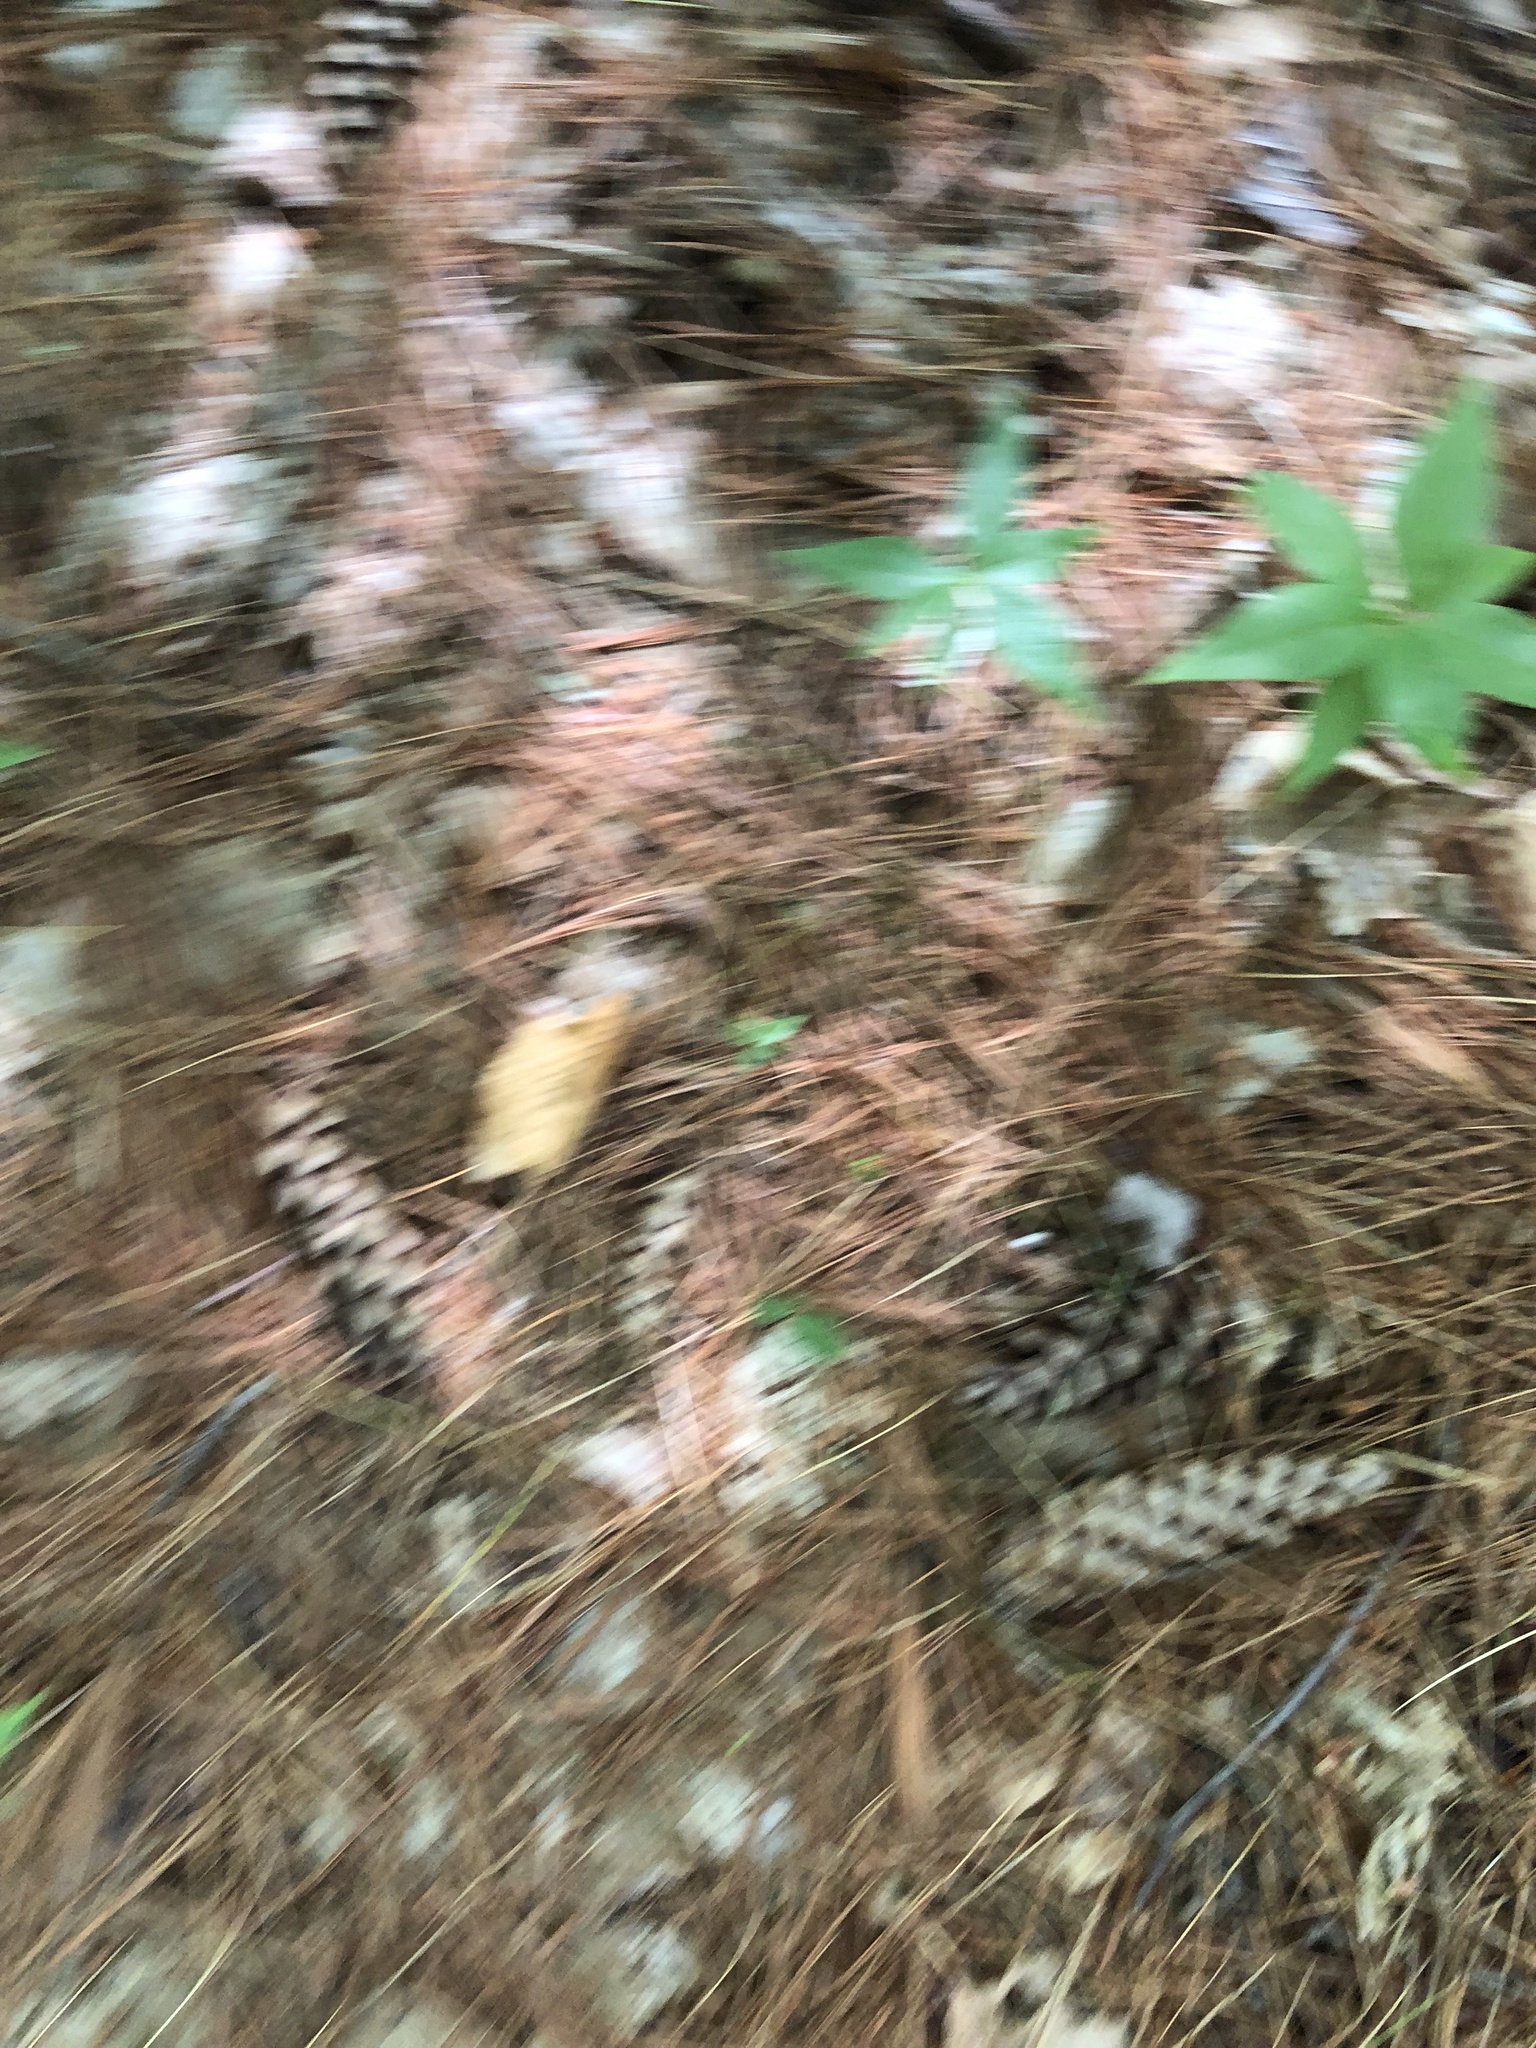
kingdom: Plantae
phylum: Tracheophyta
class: Magnoliopsida
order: Ericales
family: Primulaceae
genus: Lysimachia
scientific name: Lysimachia borealis
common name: American starflower
